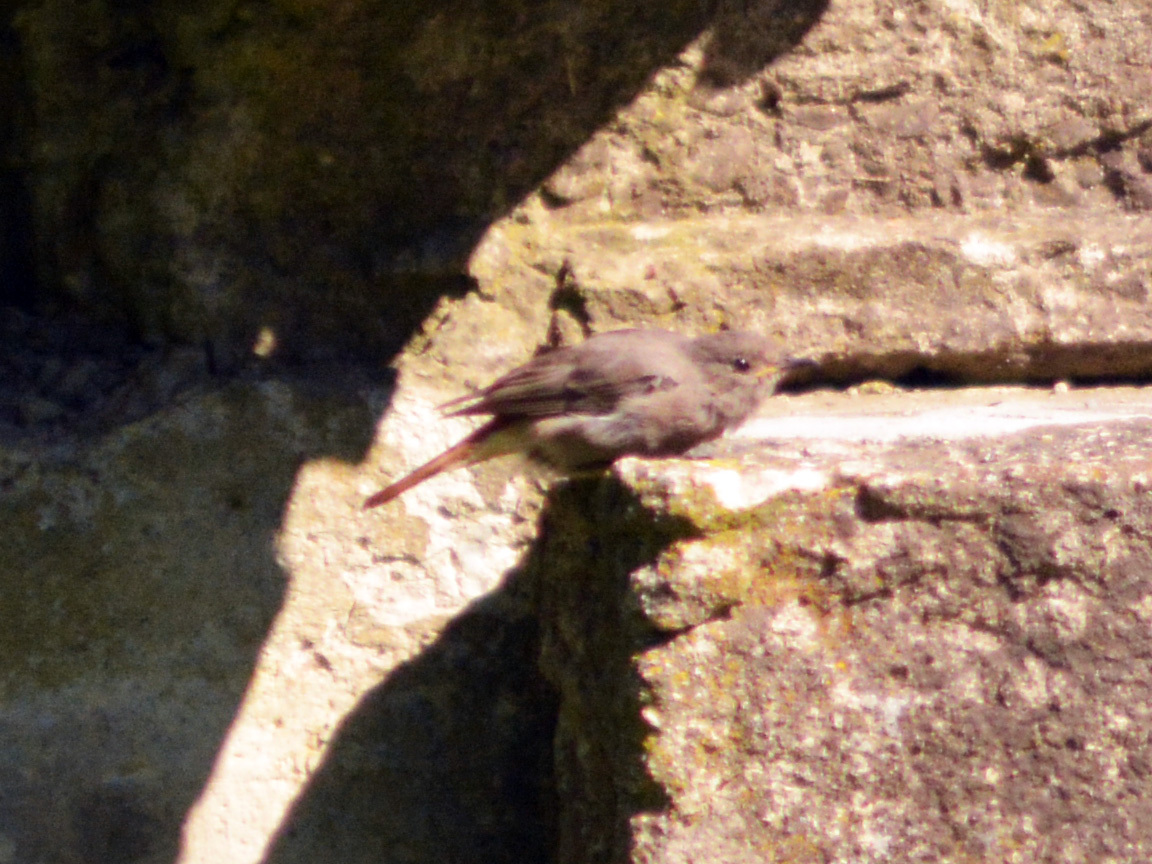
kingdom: Animalia
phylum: Chordata
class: Aves
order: Passeriformes
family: Muscicapidae
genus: Phoenicurus
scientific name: Phoenicurus ochruros
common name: Black redstart
